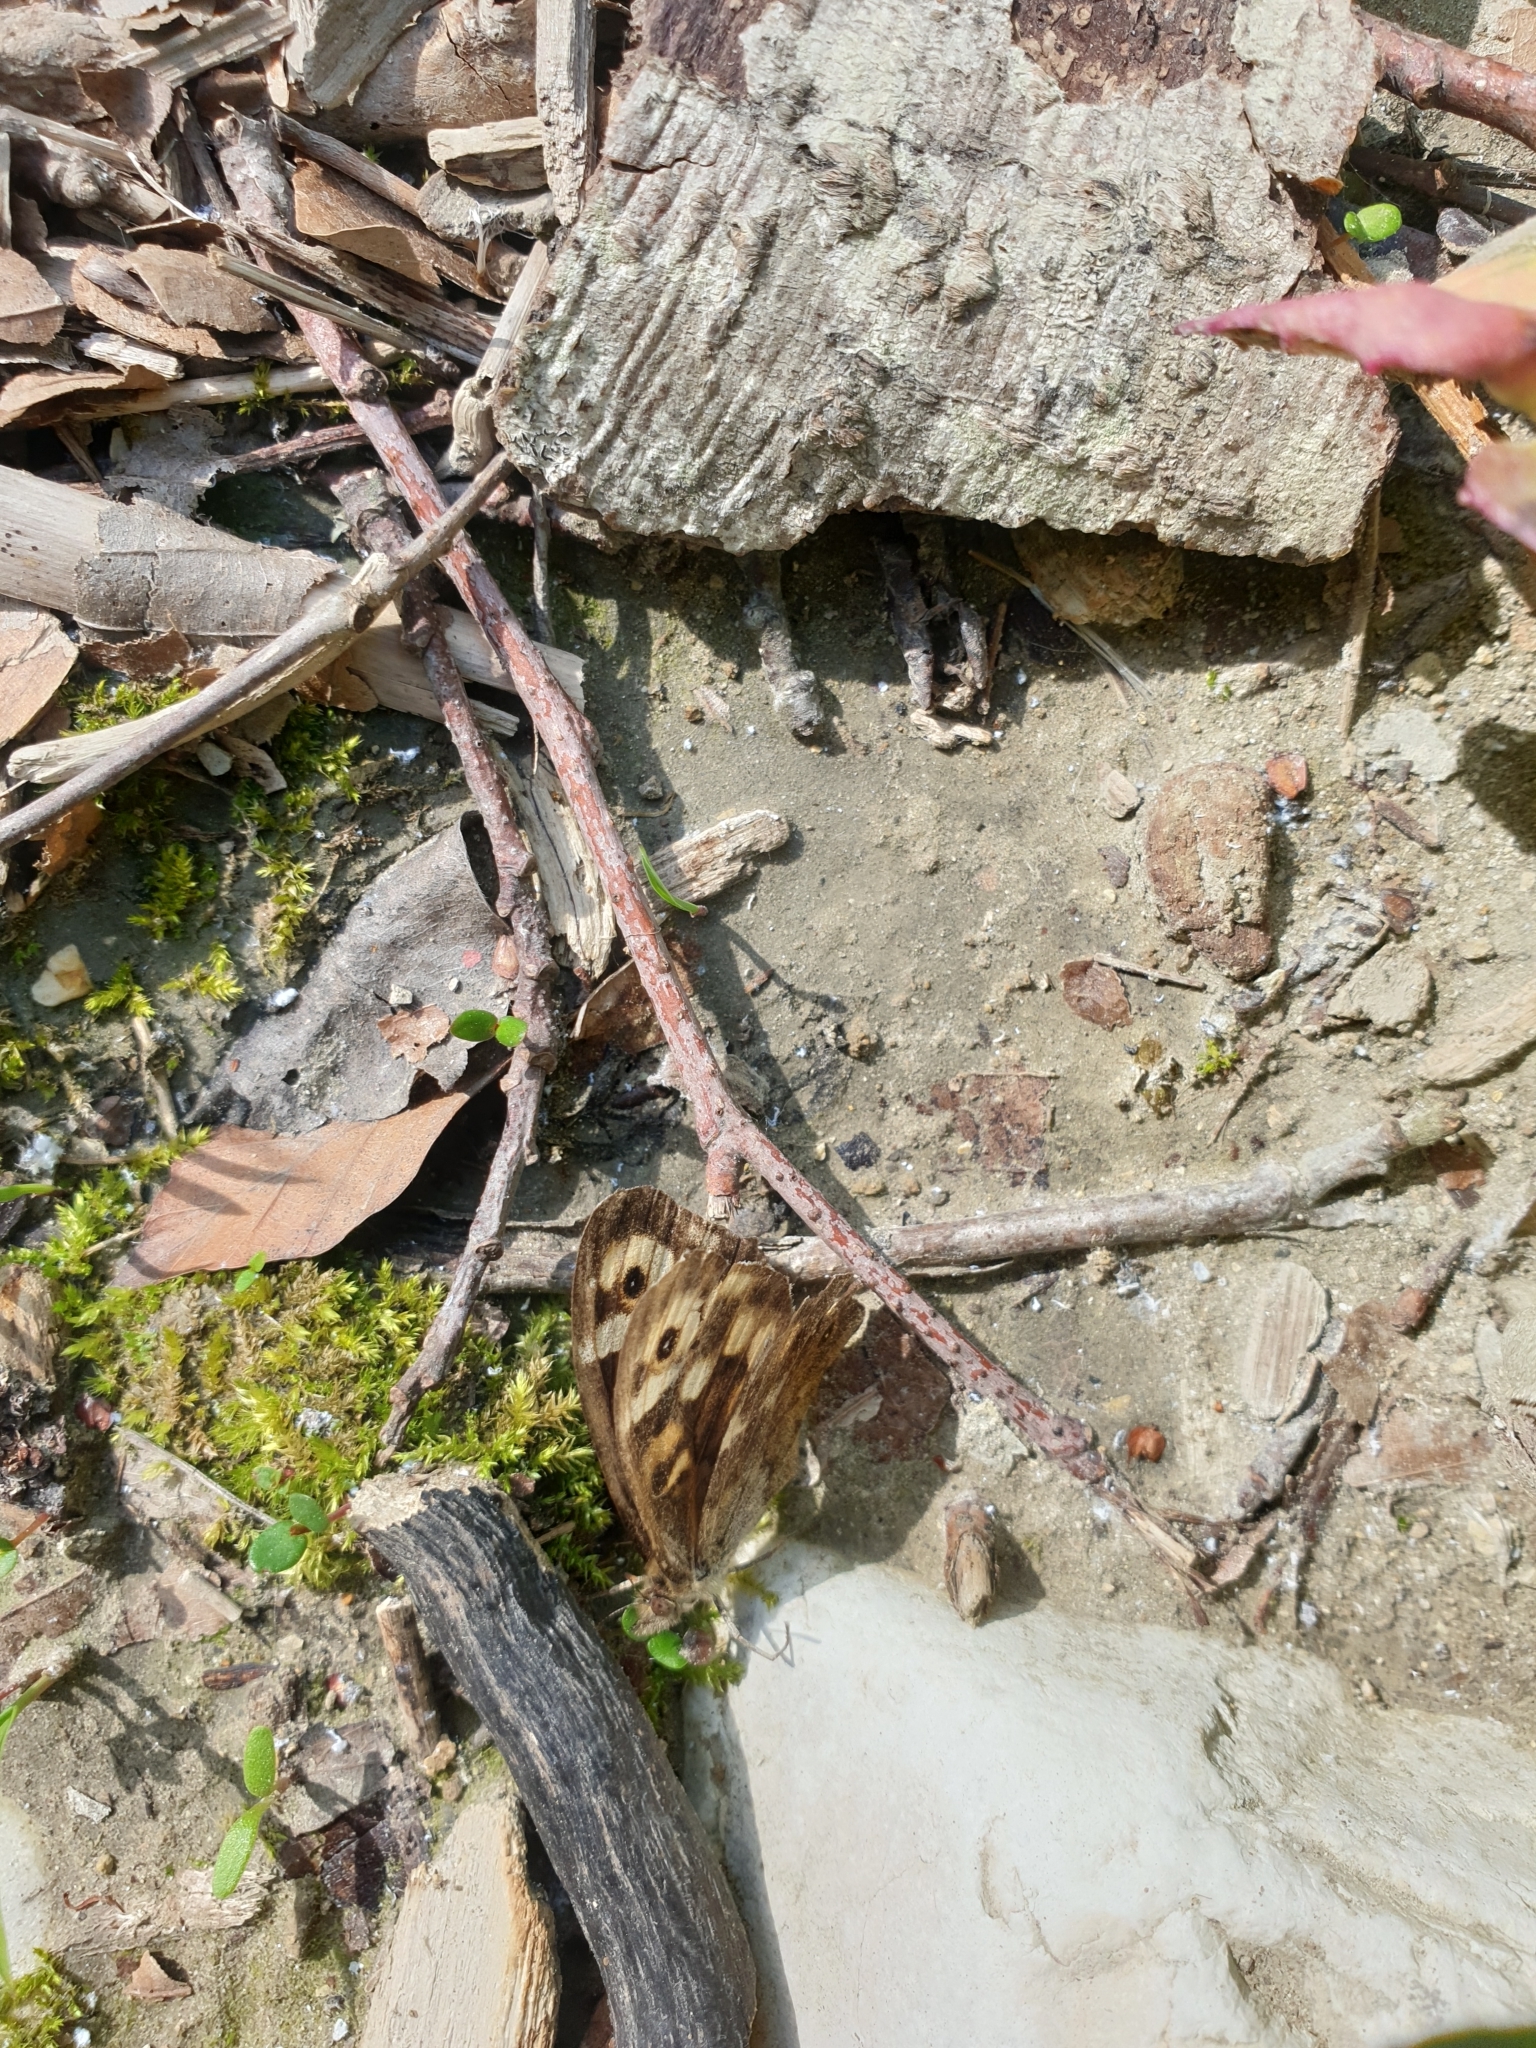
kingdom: Animalia
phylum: Arthropoda
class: Insecta
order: Lepidoptera
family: Nymphalidae
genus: Pararge
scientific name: Pararge aegeria
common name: Speckled wood
